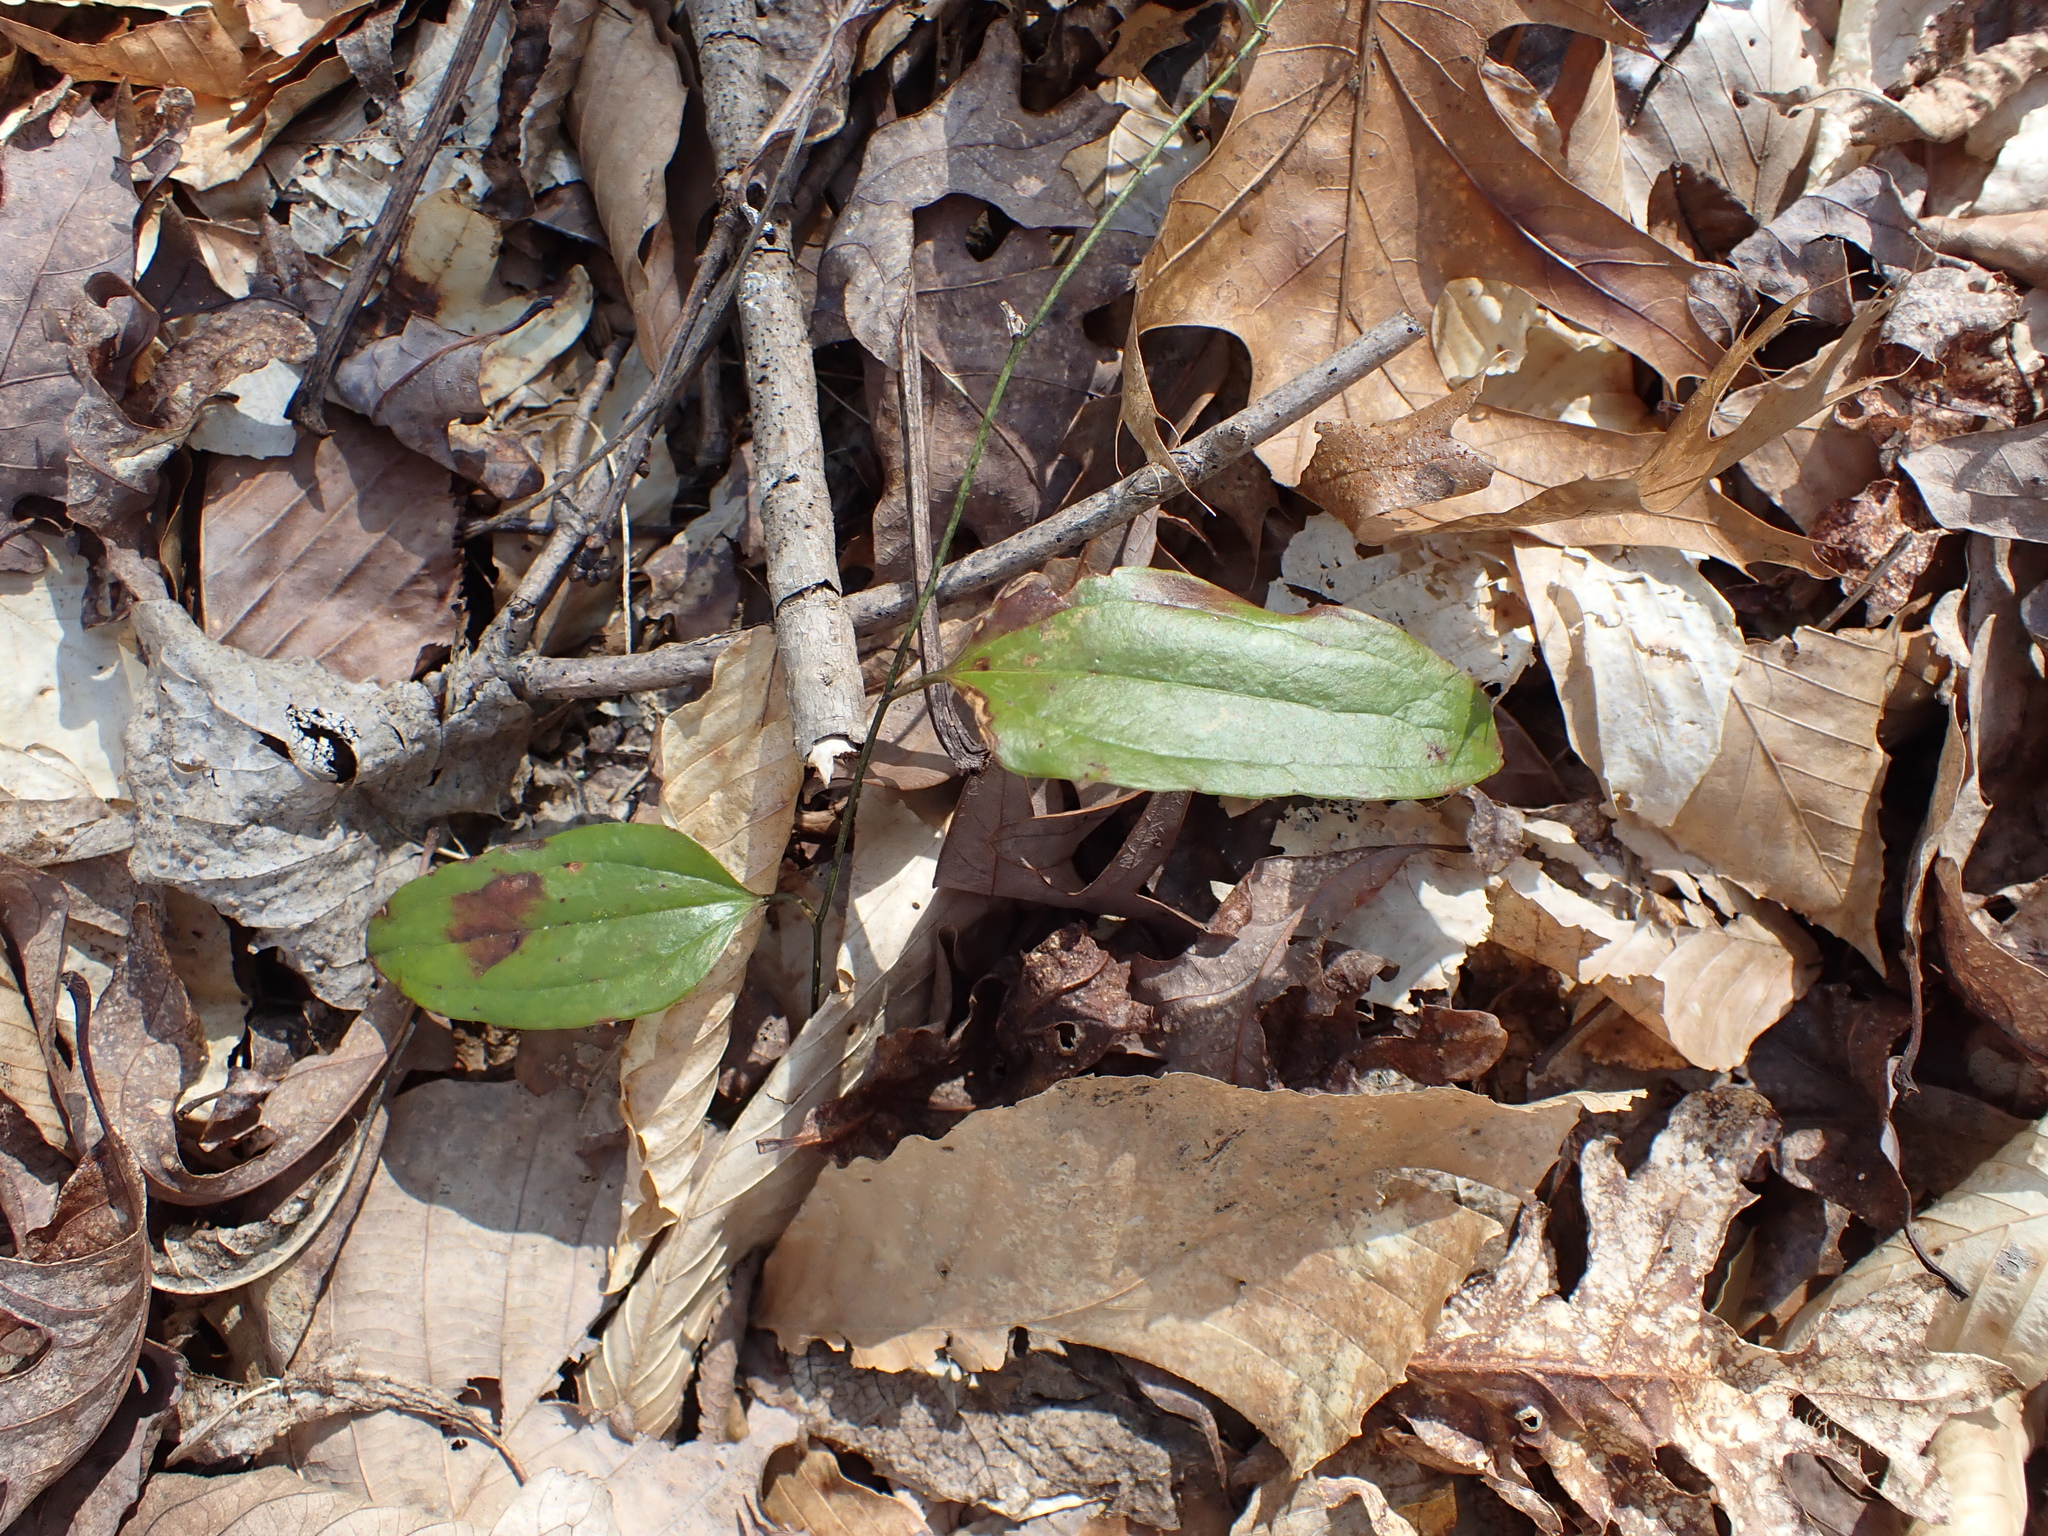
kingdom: Plantae
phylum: Tracheophyta
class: Liliopsida
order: Liliales
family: Smilacaceae
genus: Smilax
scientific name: Smilax glauca
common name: Cat greenbrier
